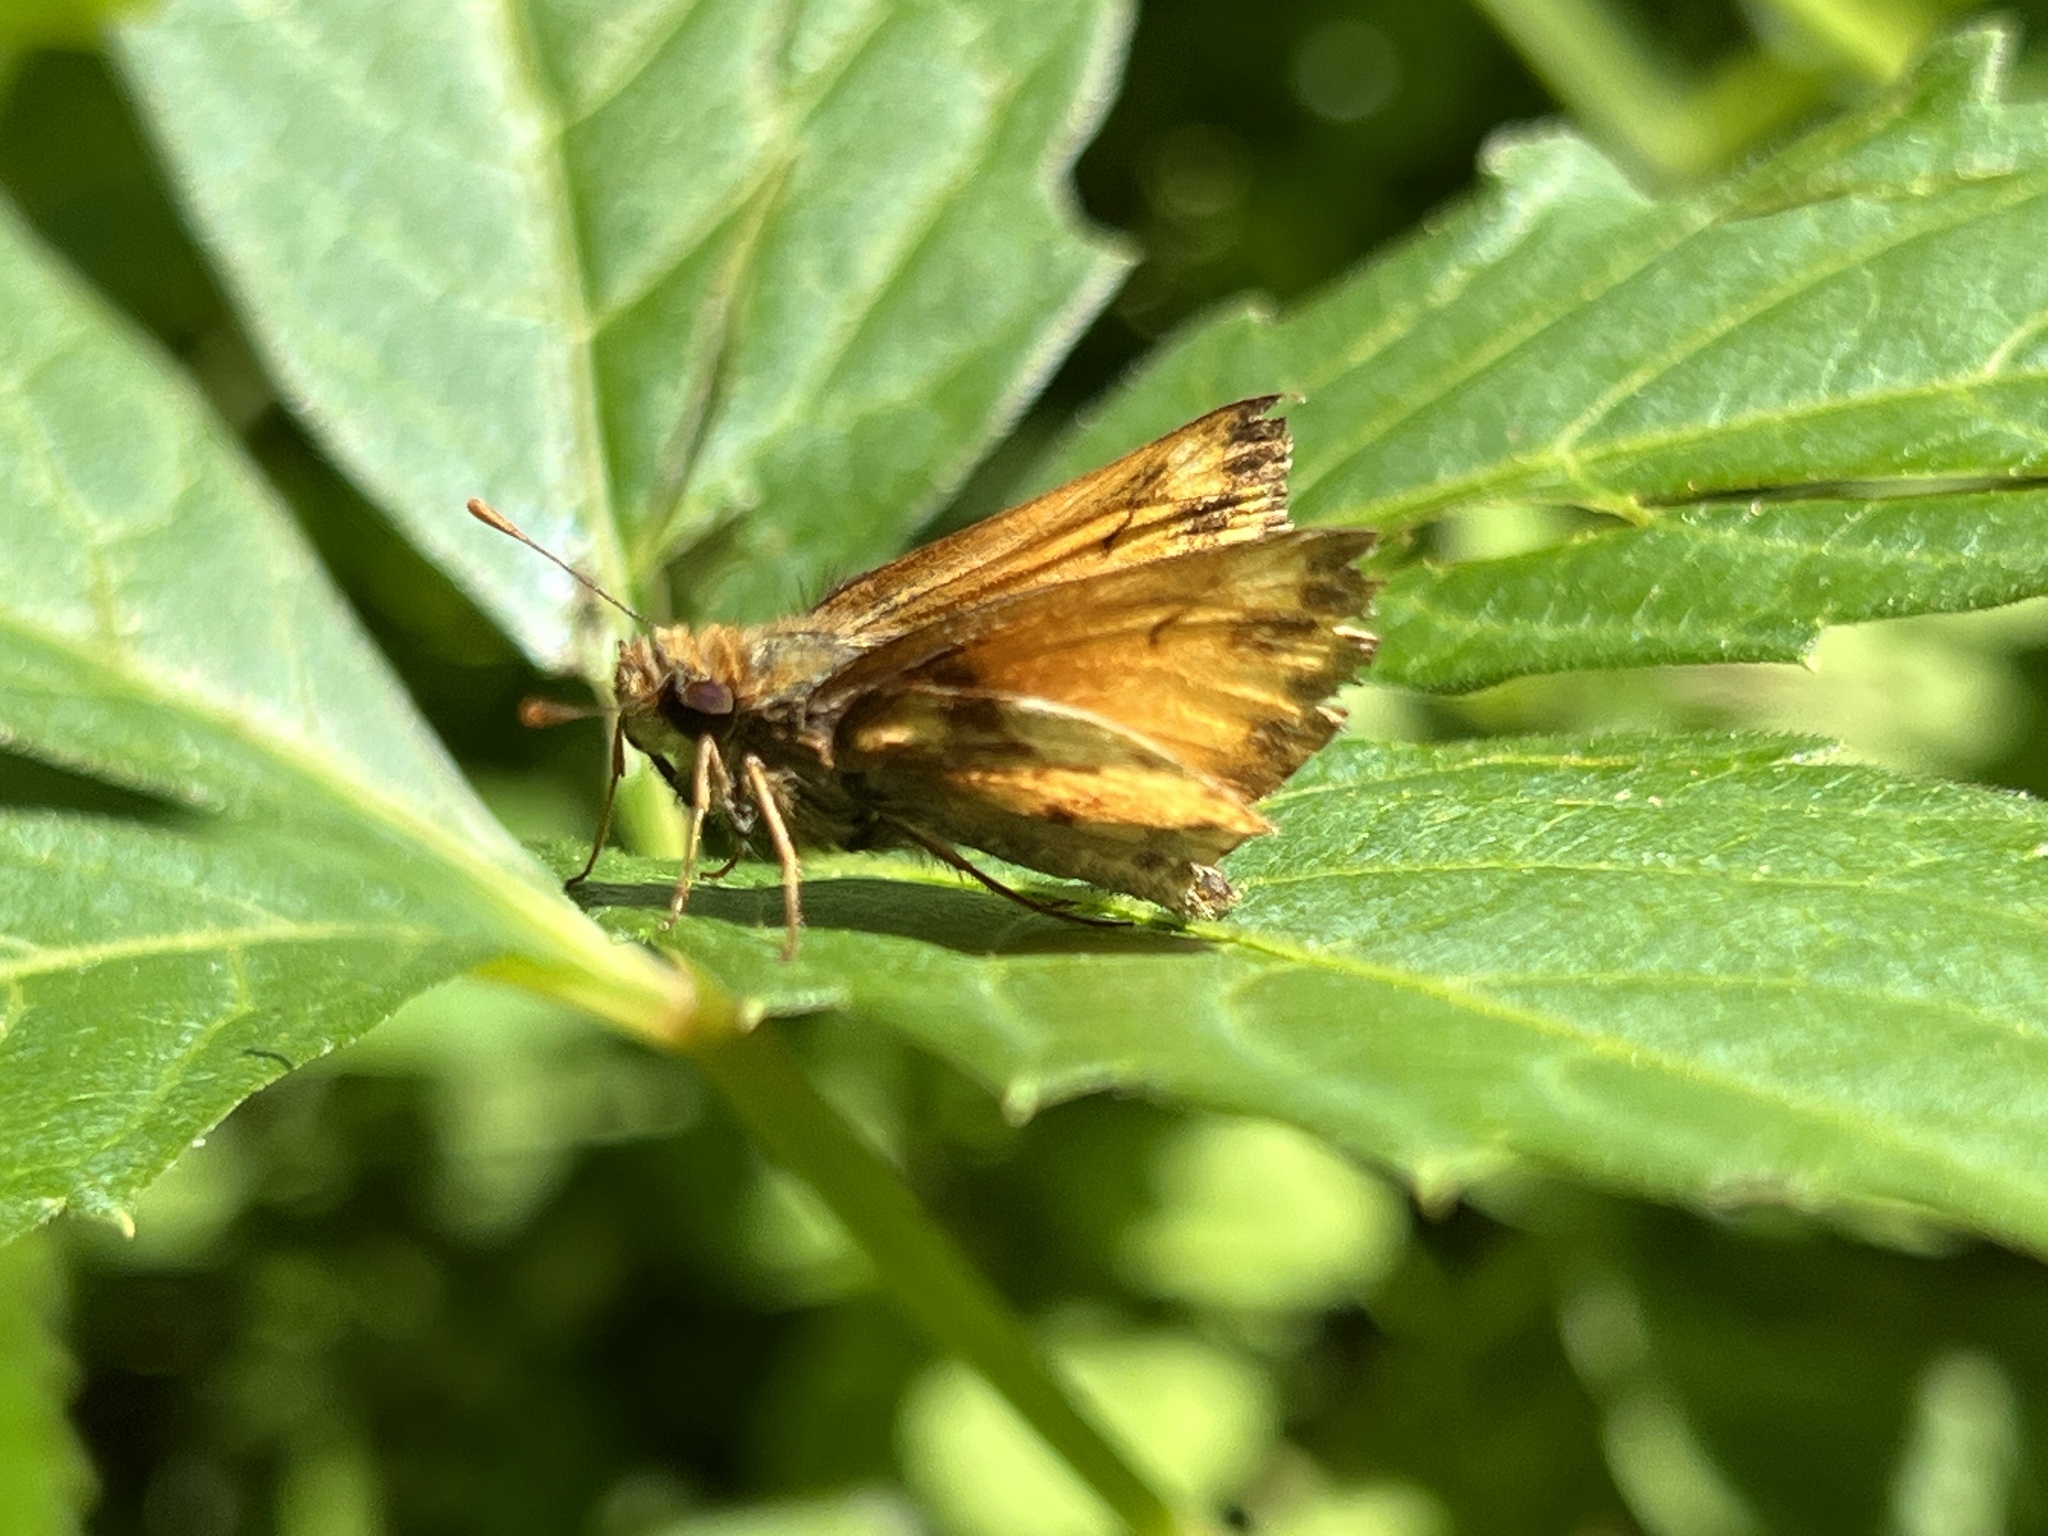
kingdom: Animalia
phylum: Arthropoda
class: Insecta
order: Lepidoptera
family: Hesperiidae
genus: Lon
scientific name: Lon zabulon
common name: Zabulon skipper
